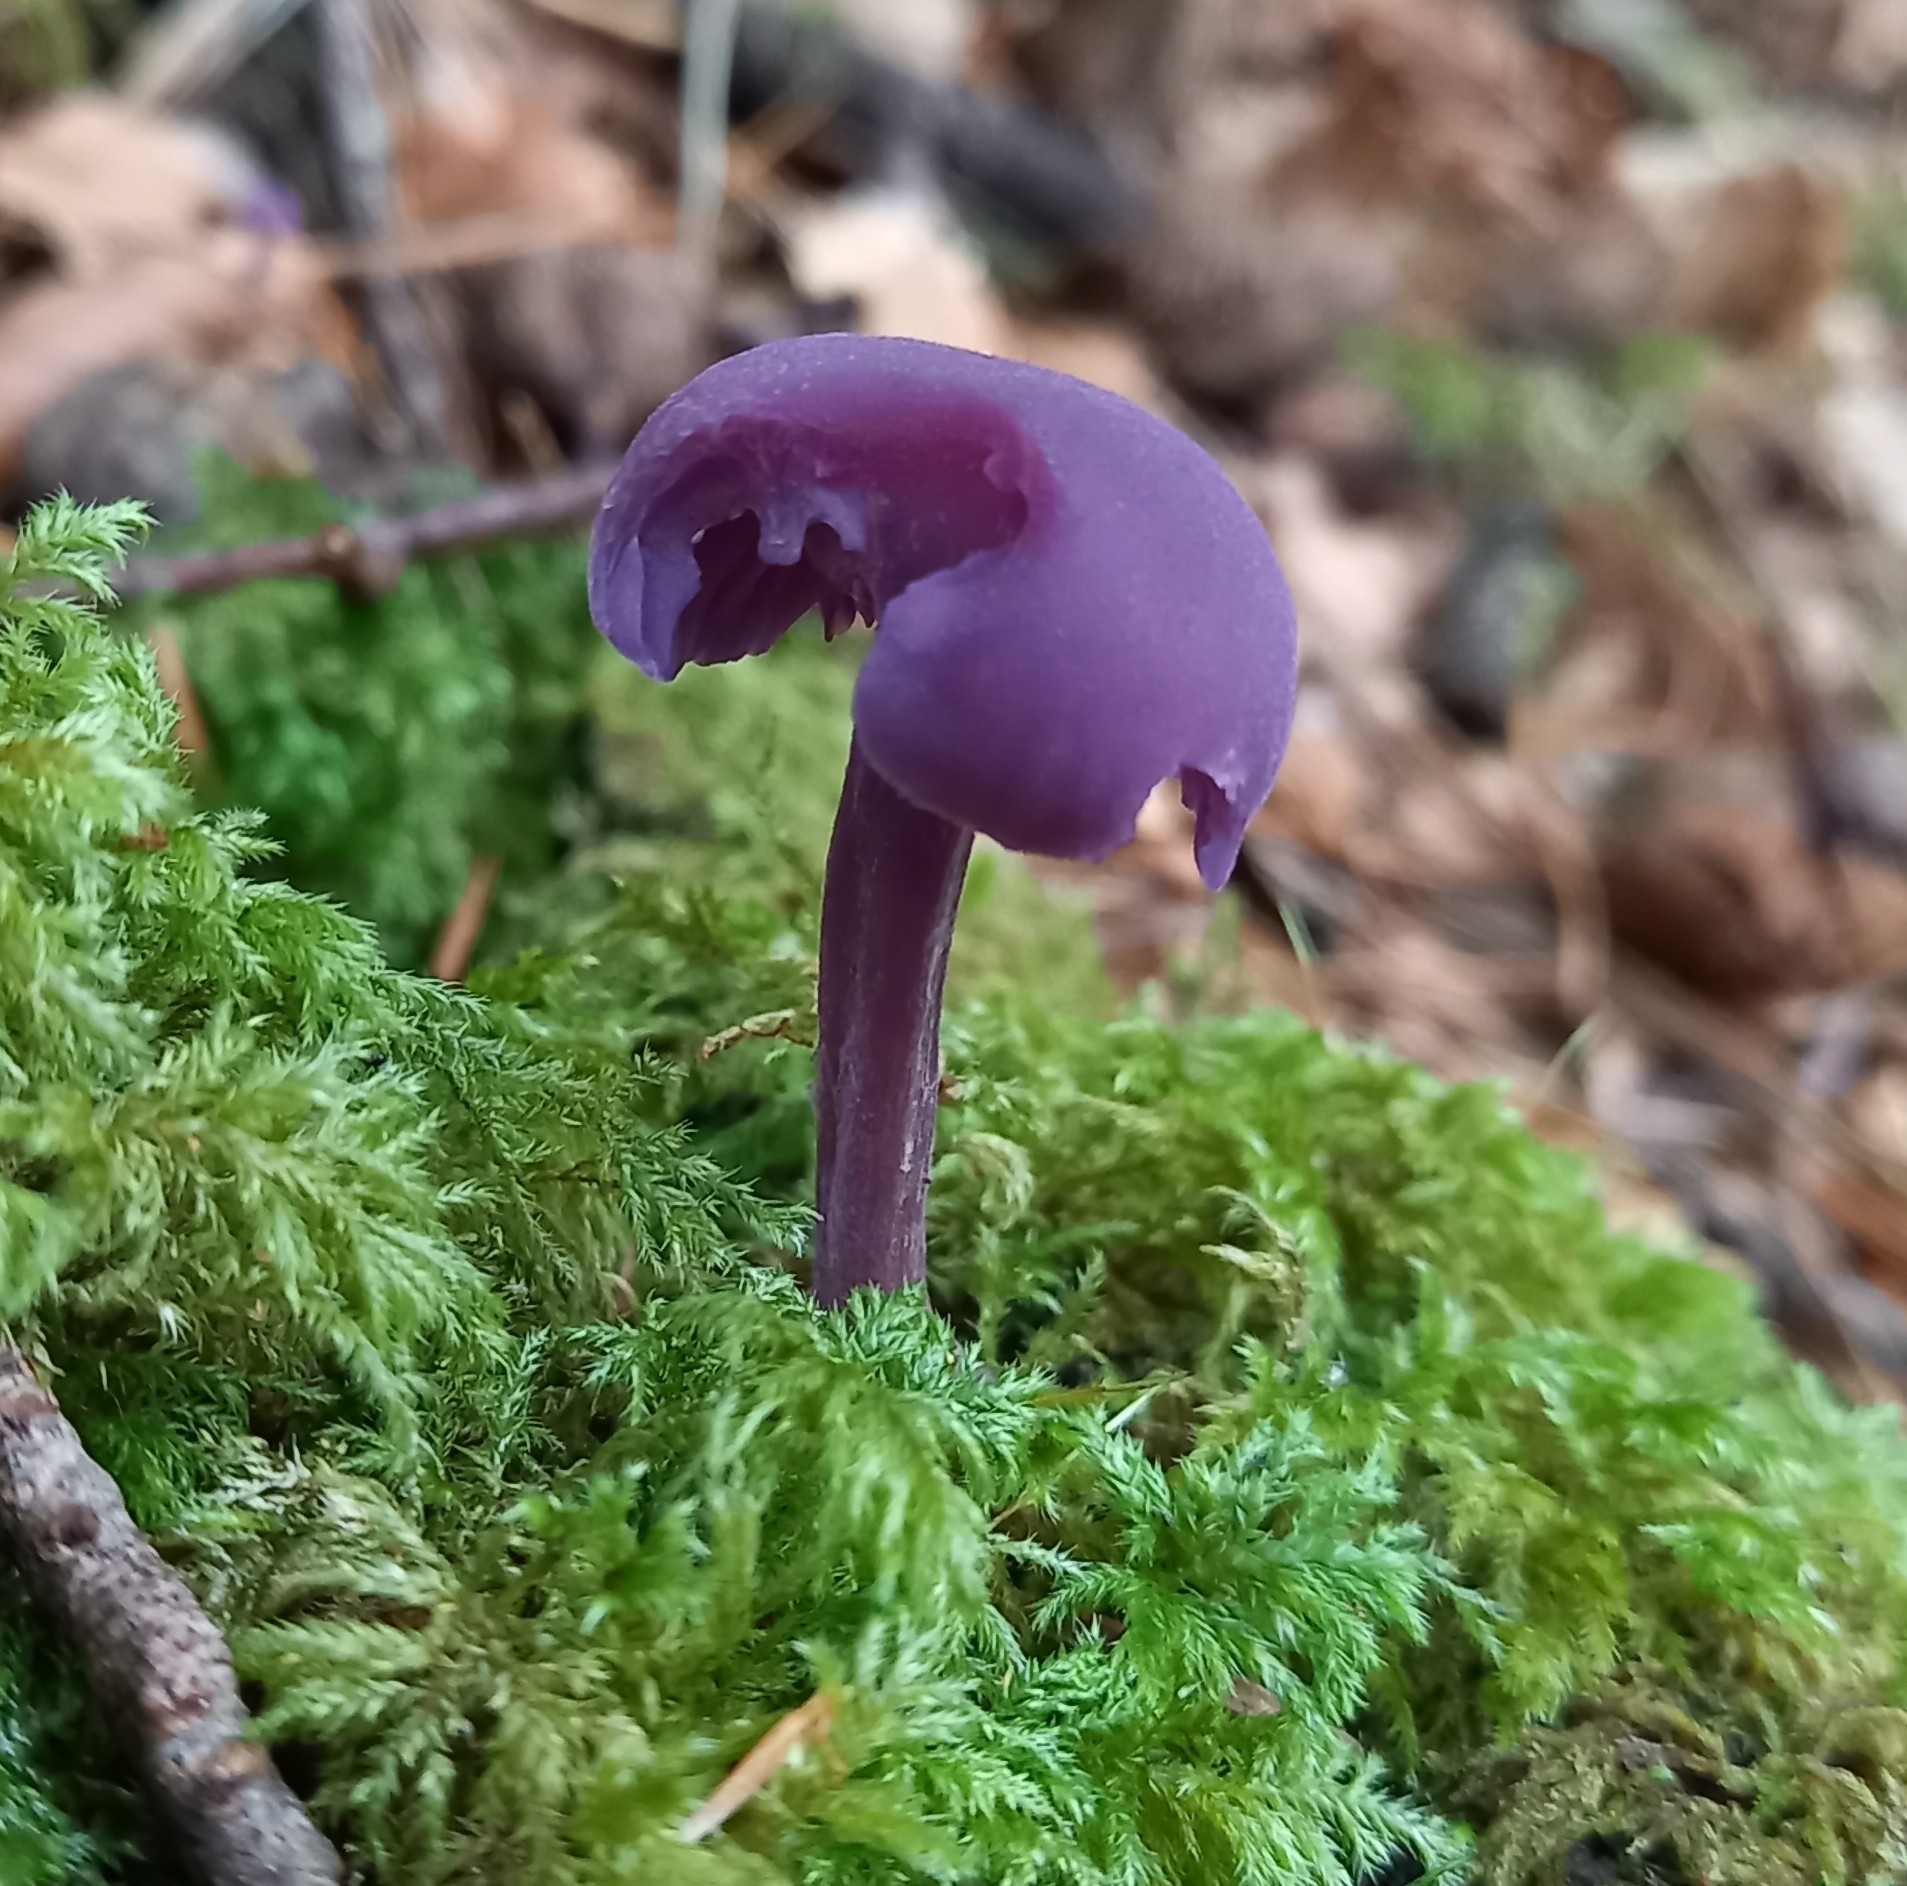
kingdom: Fungi
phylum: Basidiomycota
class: Agaricomycetes
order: Agaricales
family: Hydnangiaceae
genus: Laccaria
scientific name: Laccaria amethystina
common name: Amethyst deceiver
